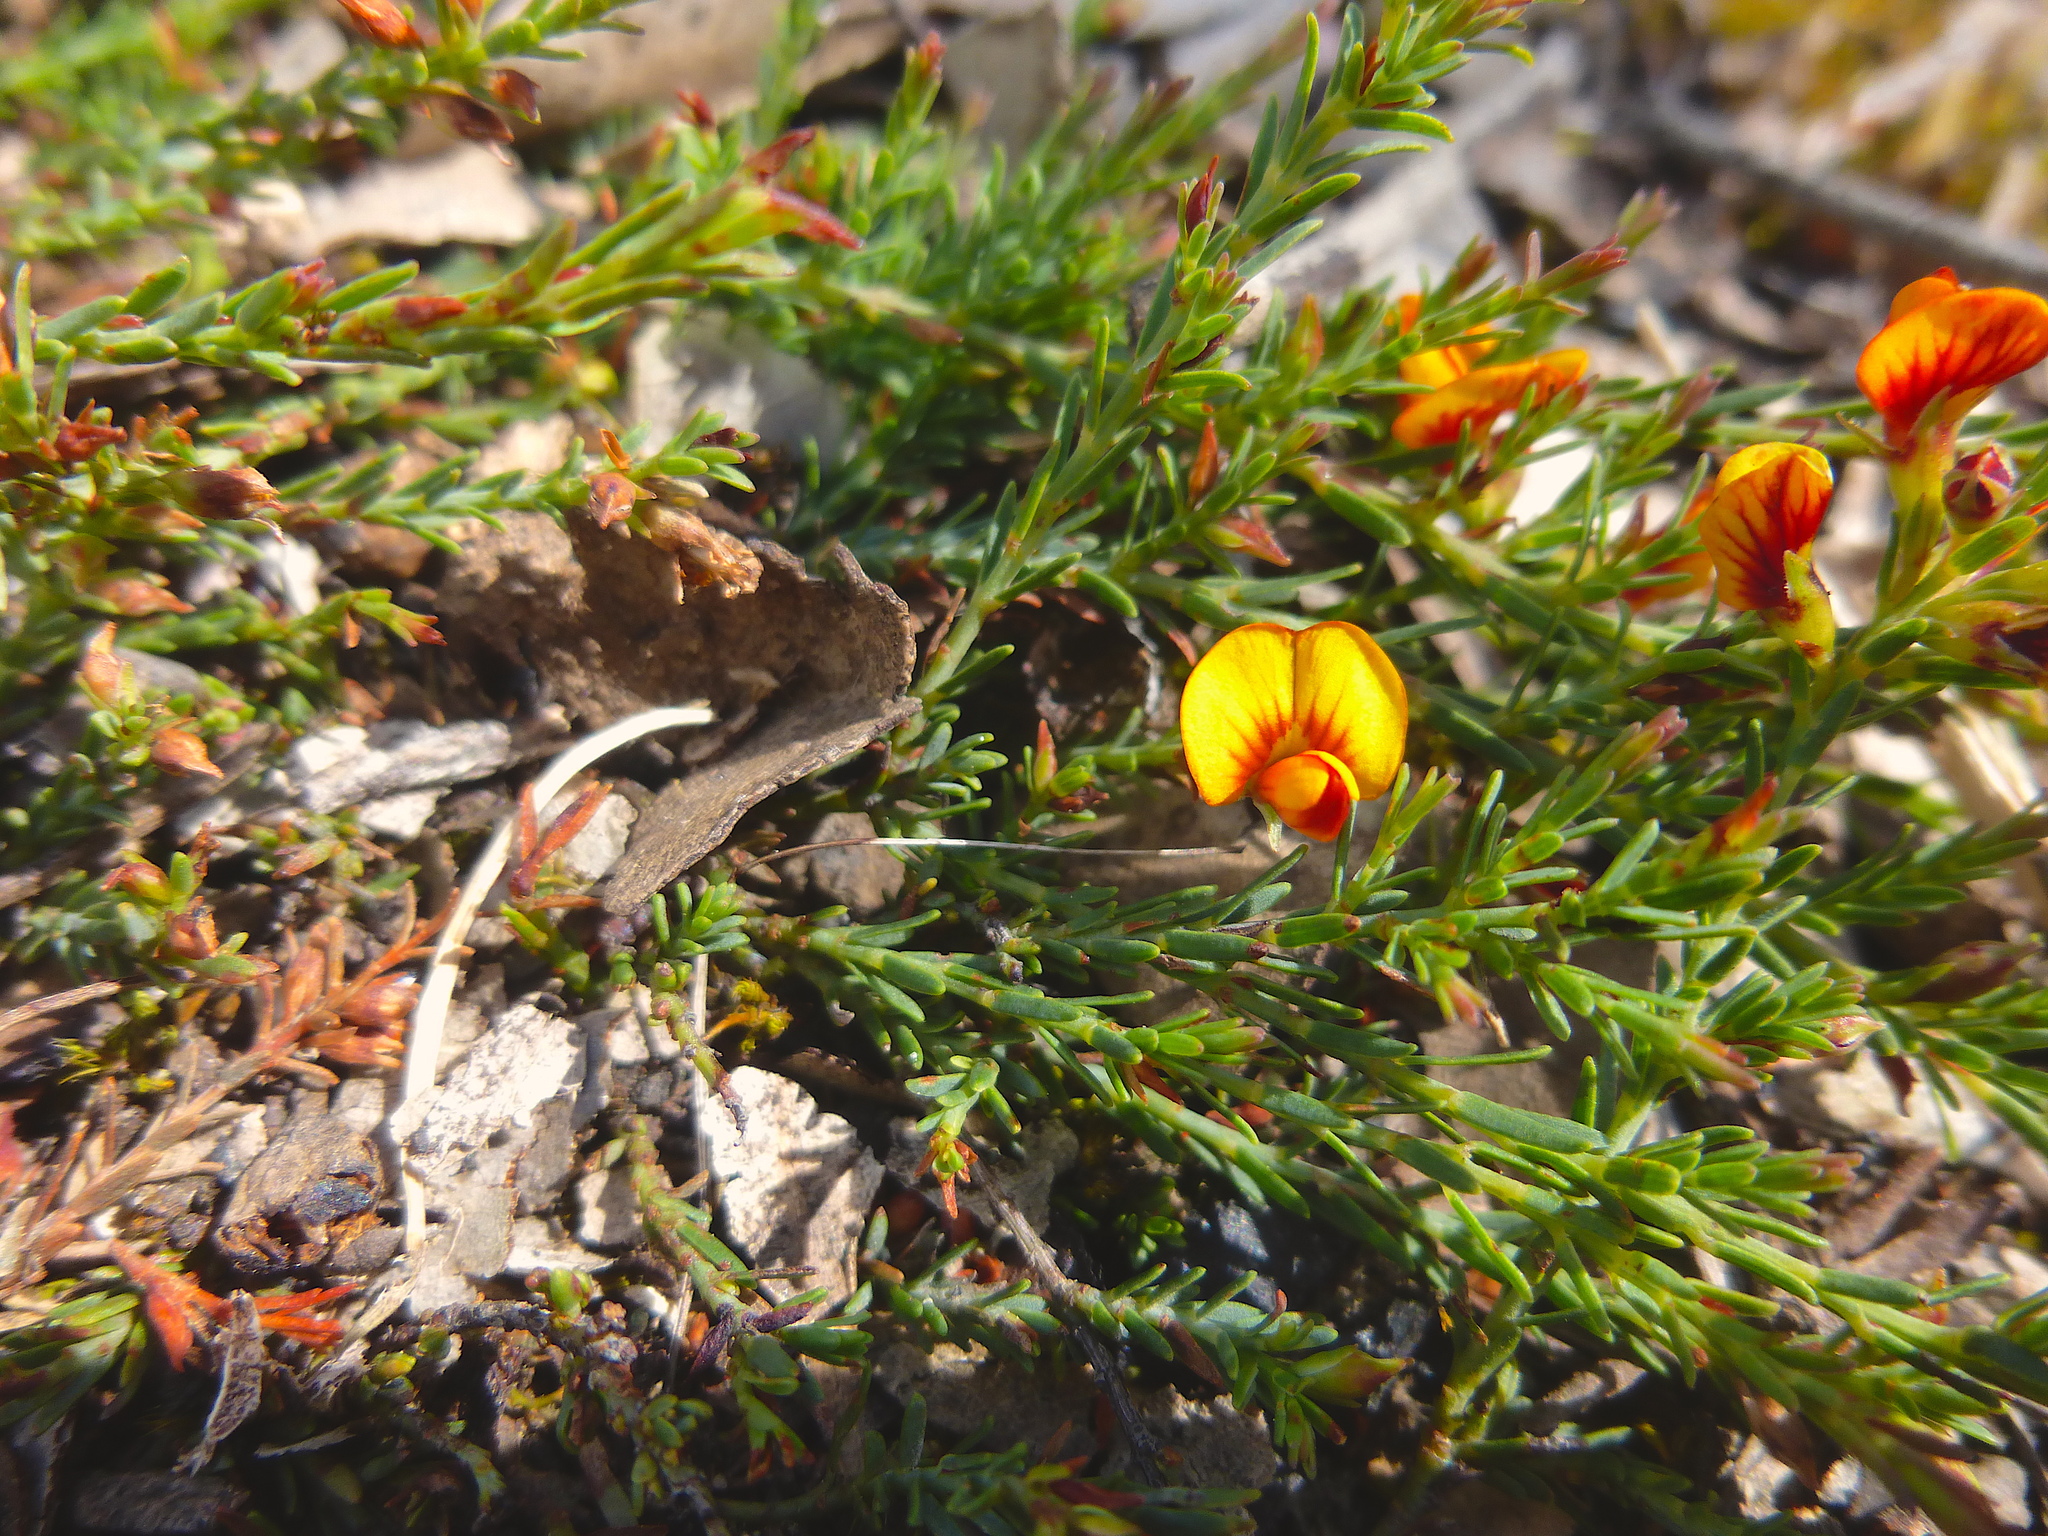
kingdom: Plantae
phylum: Tracheophyta
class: Magnoliopsida
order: Fabales
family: Fabaceae
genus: Eutaxia
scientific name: Eutaxia microphylla
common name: Mallee bush-pea
